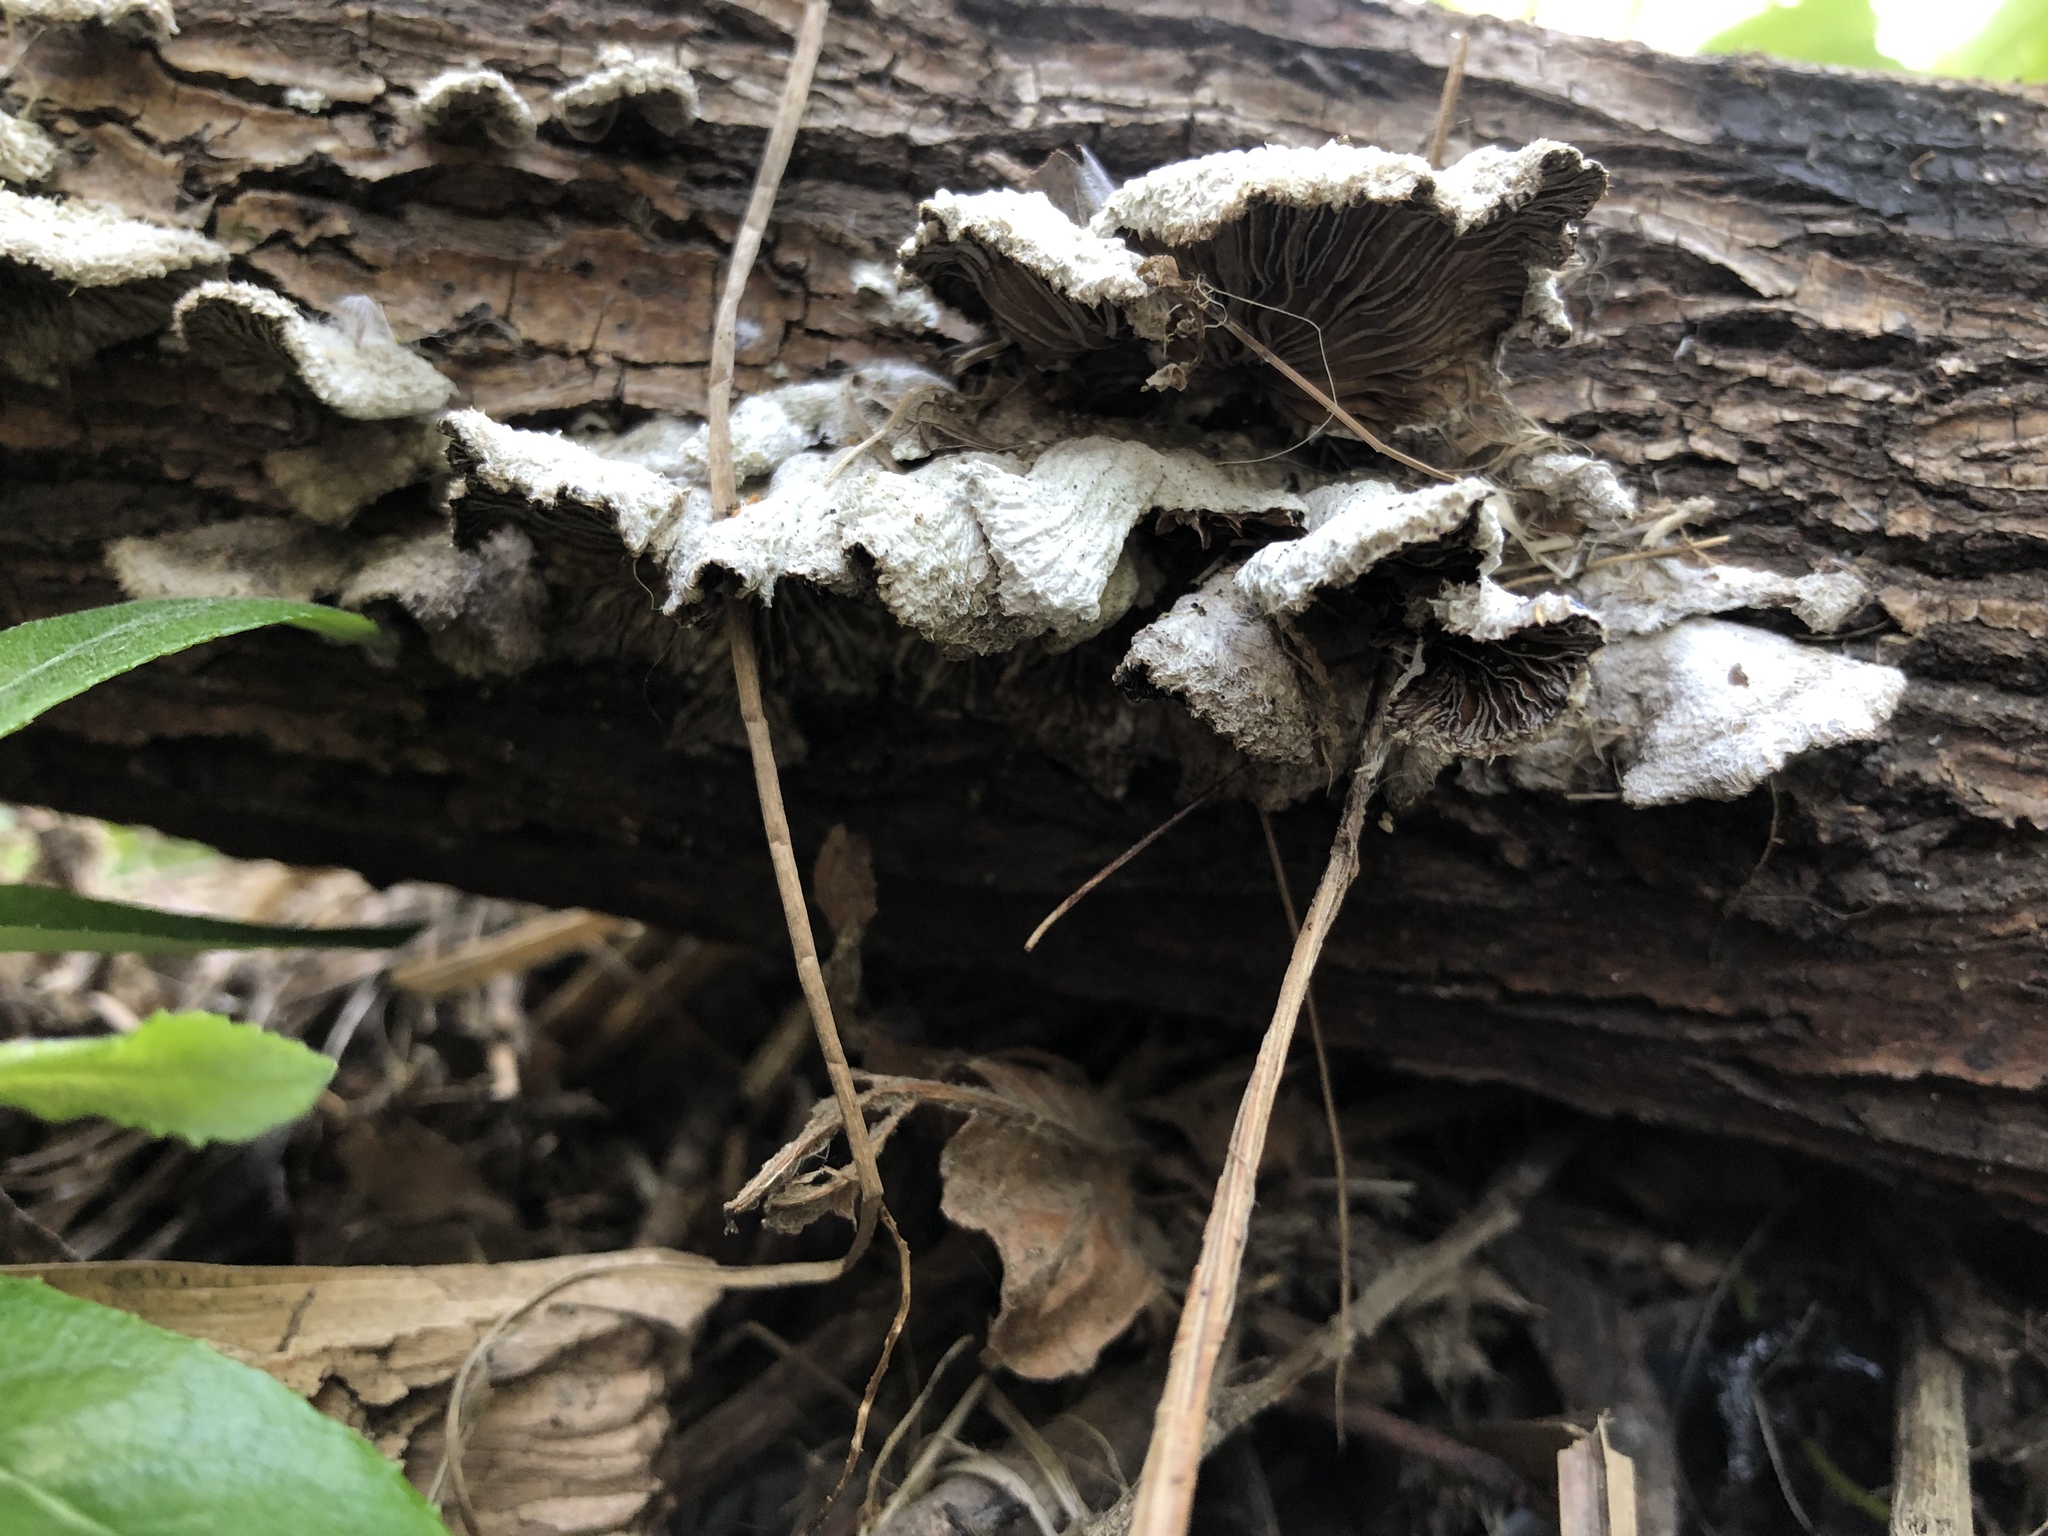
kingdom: Fungi
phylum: Basidiomycota
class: Agaricomycetes
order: Agaricales
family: Schizophyllaceae
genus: Schizophyllum
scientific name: Schizophyllum commune
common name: Common porecrust
